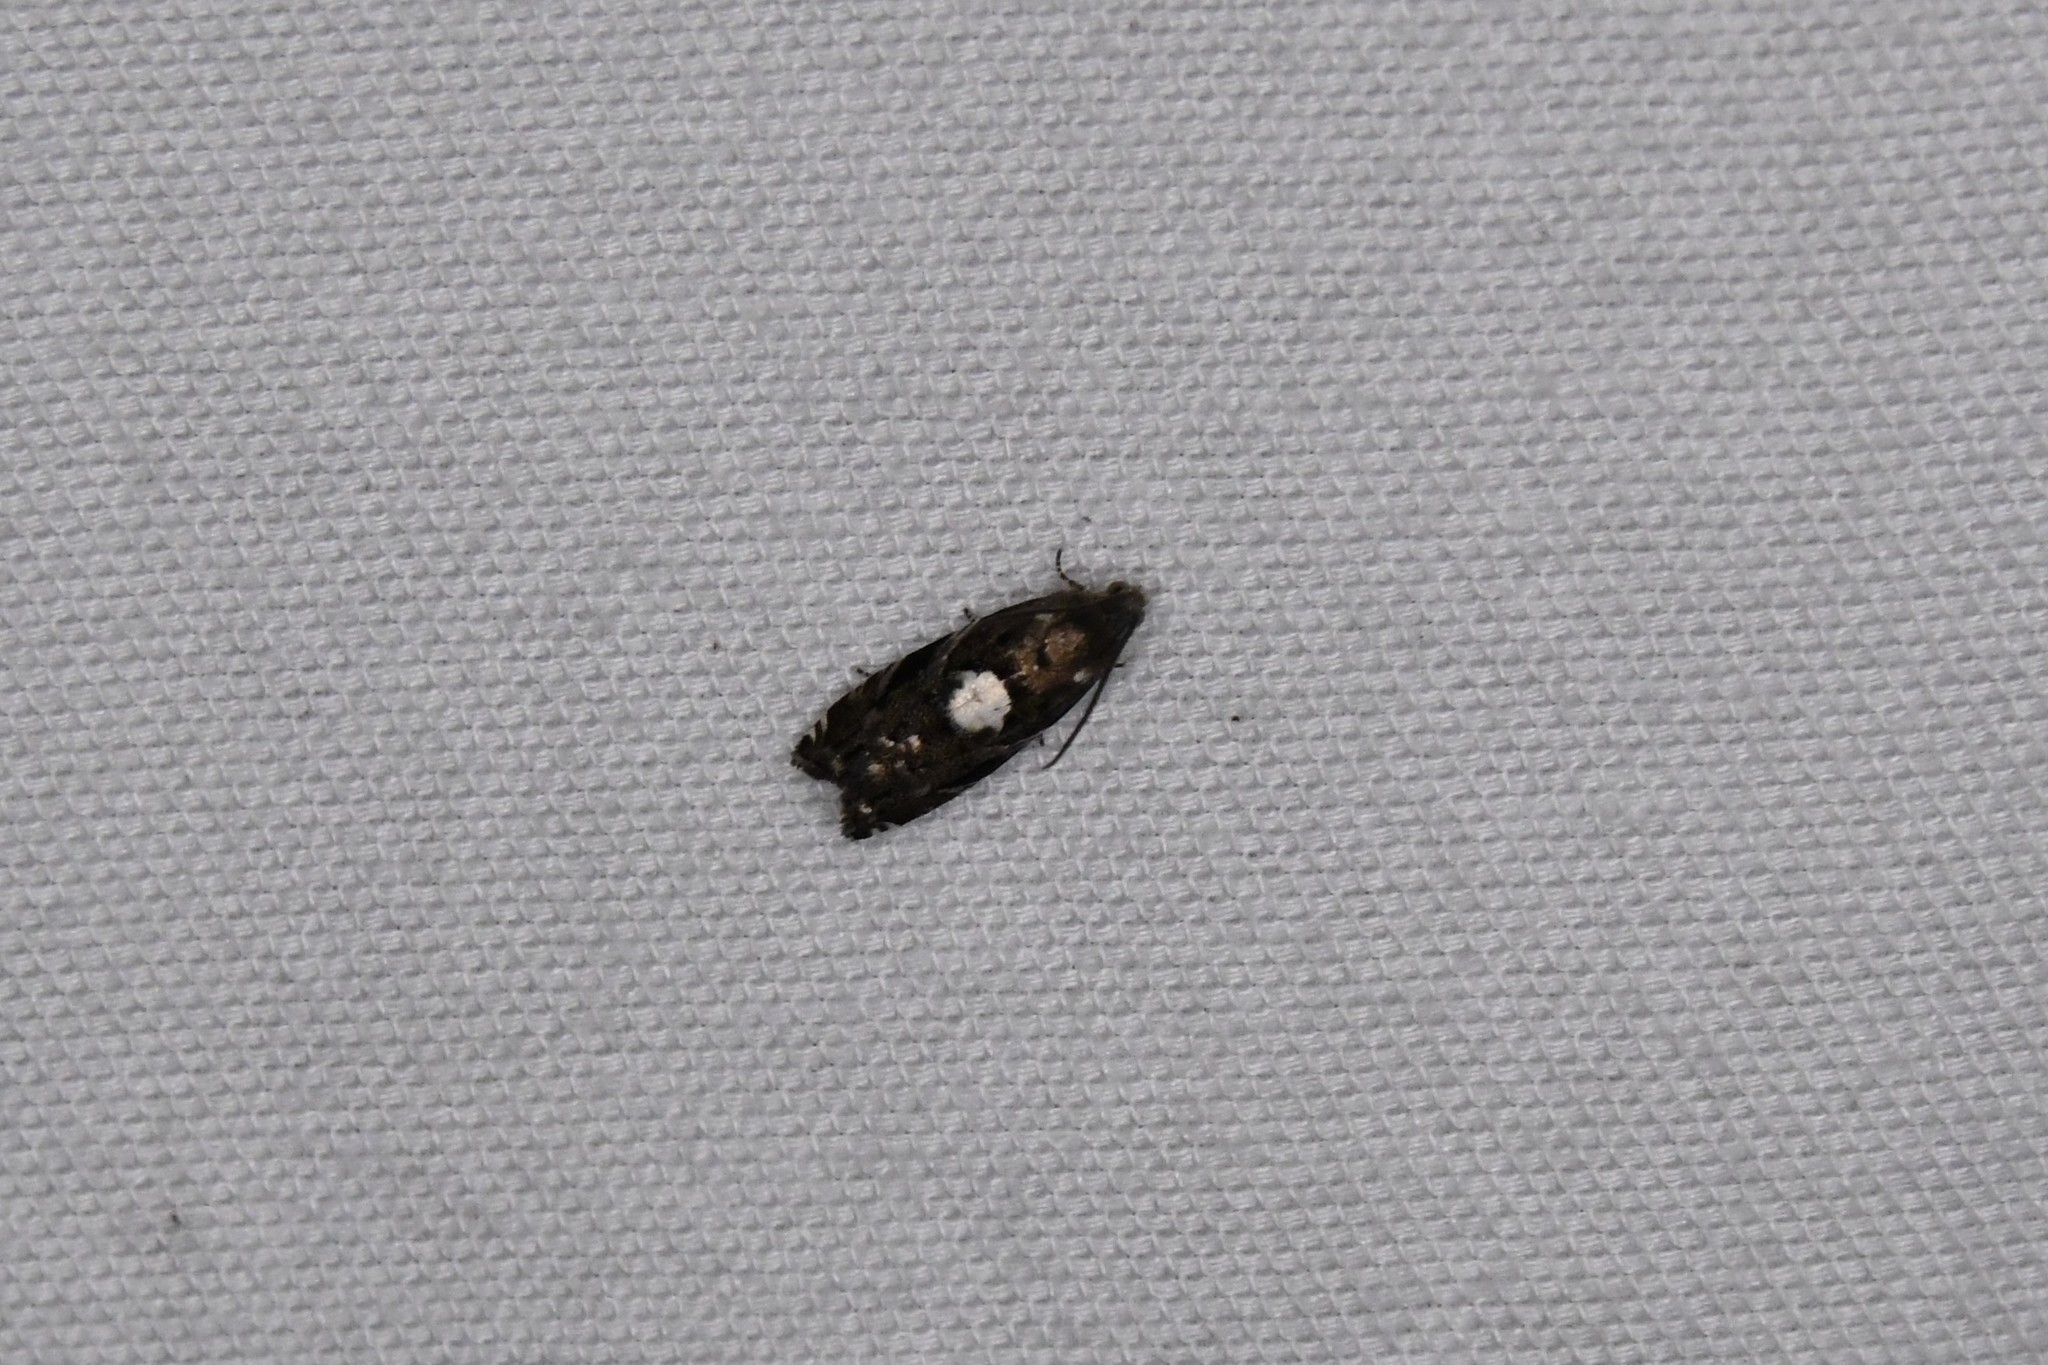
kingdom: Animalia
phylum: Arthropoda
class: Insecta
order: Lepidoptera
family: Tortricidae
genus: Cydia
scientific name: Cydia albimaculana
